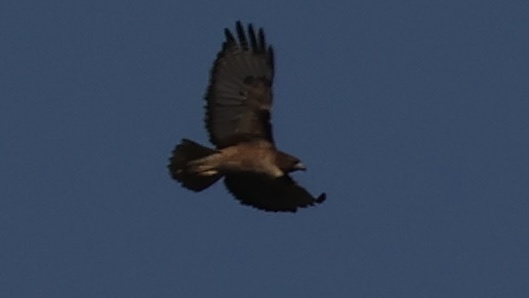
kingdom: Animalia
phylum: Chordata
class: Aves
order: Accipitriformes
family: Accipitridae
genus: Buteo
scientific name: Buteo jamaicensis
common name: Red-tailed hawk
